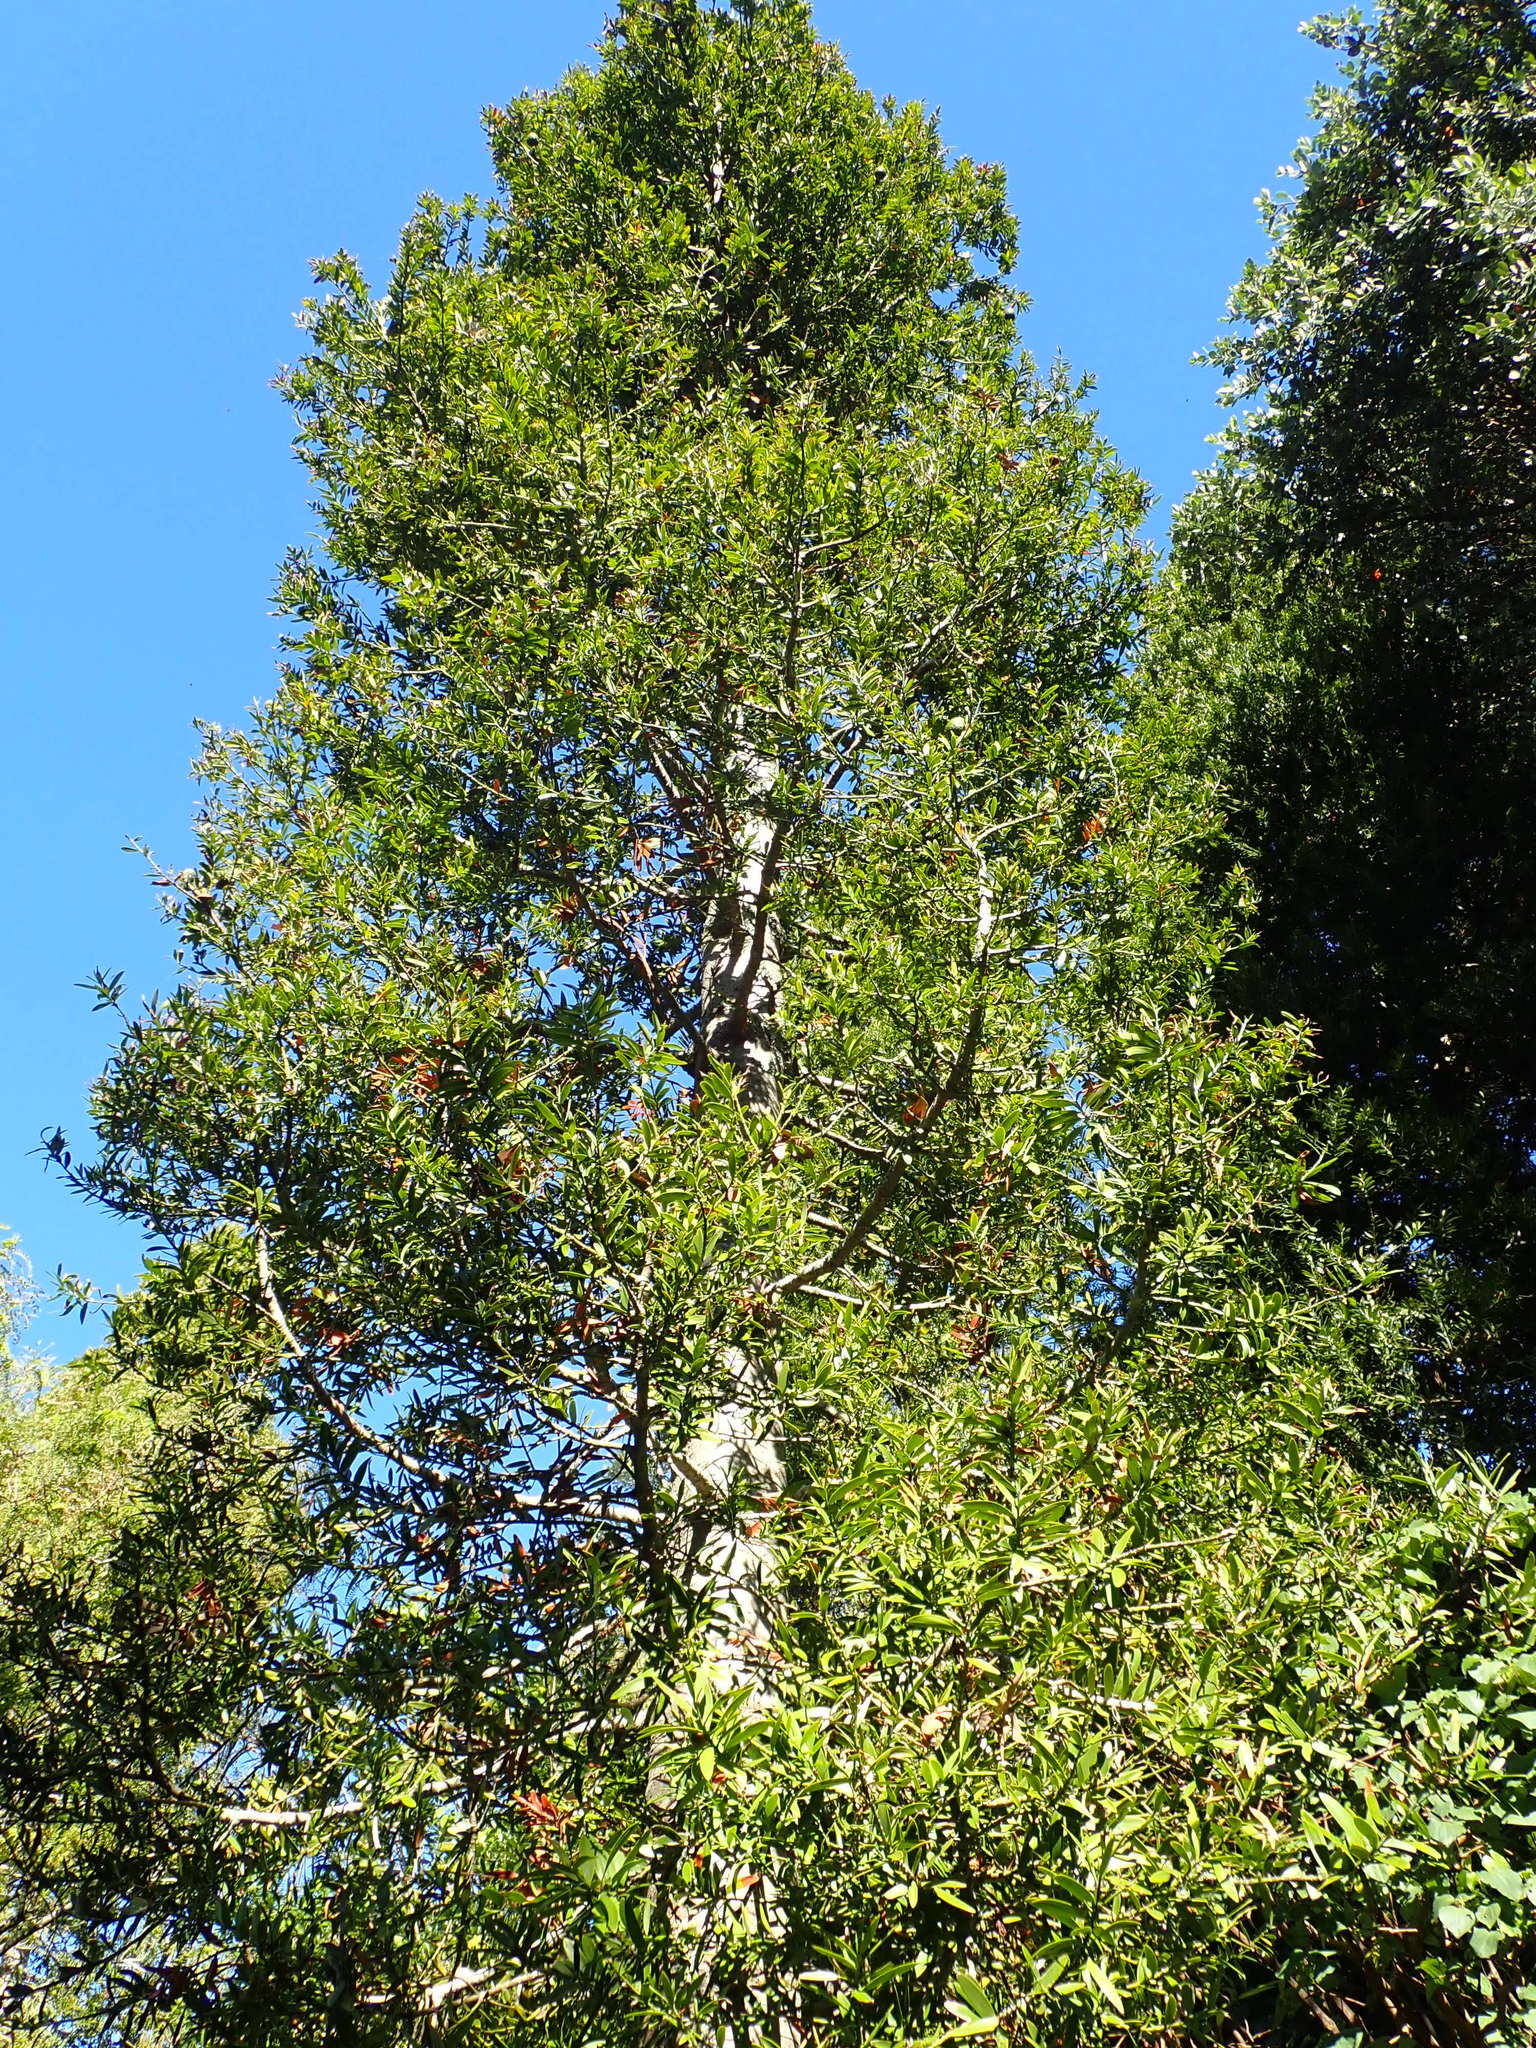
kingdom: Plantae
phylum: Tracheophyta
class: Pinopsida
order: Pinales
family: Araucariaceae
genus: Agathis
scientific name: Agathis australis
